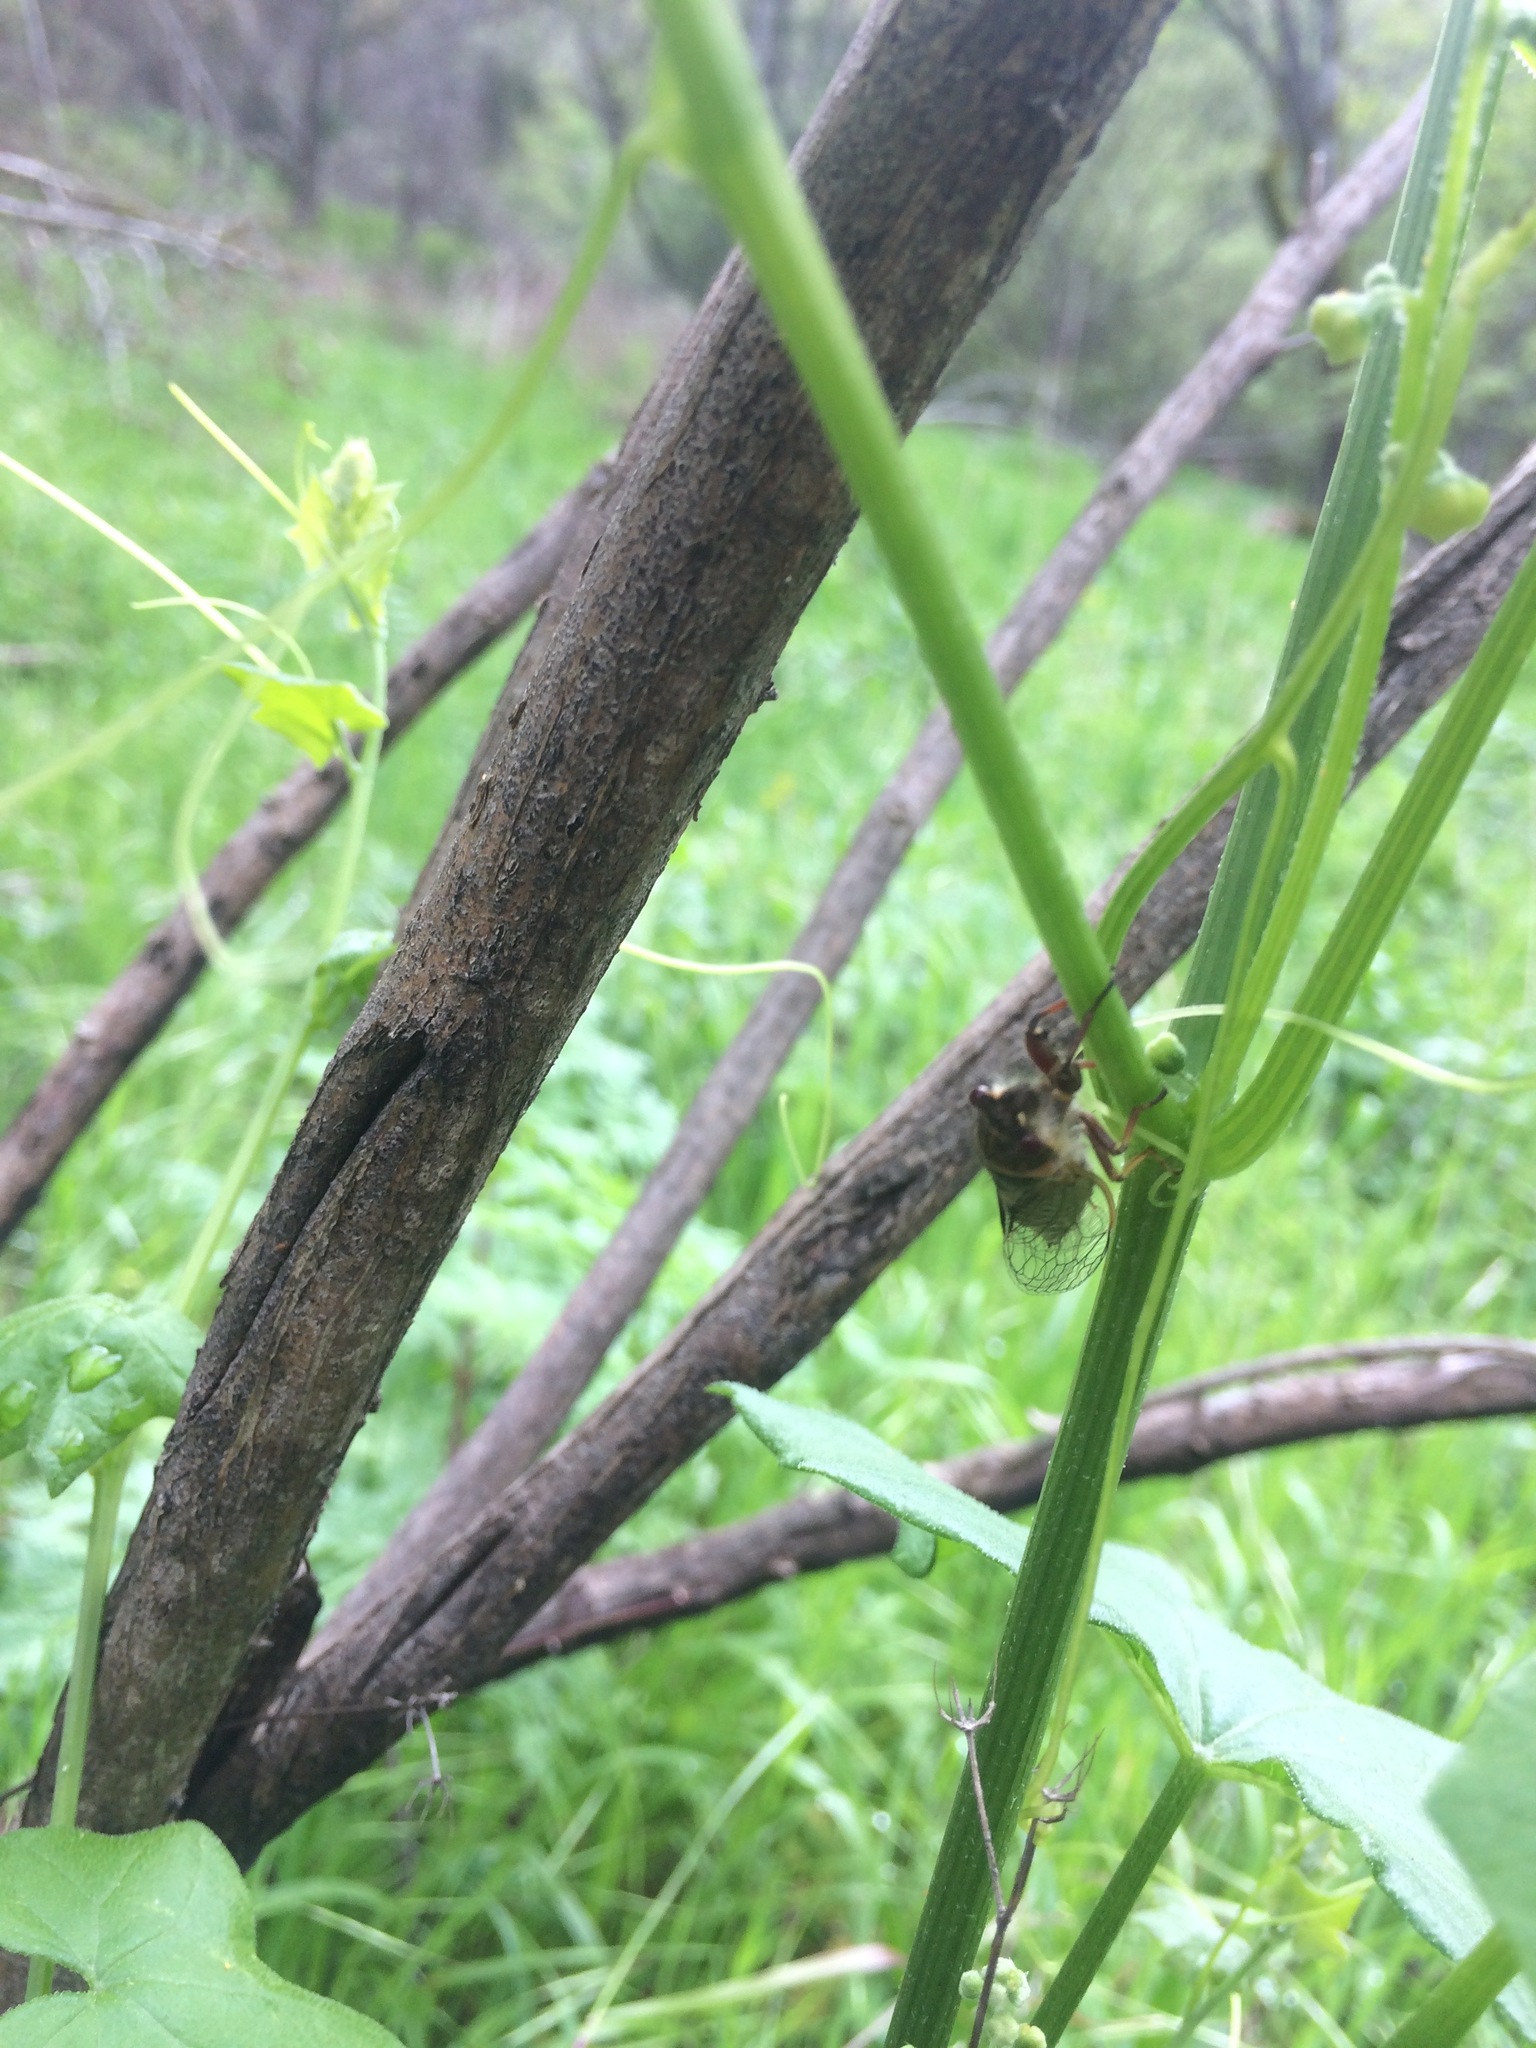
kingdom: Animalia
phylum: Arthropoda
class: Insecta
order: Hemiptera
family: Cicadidae
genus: Platypedia
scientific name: Platypedia
